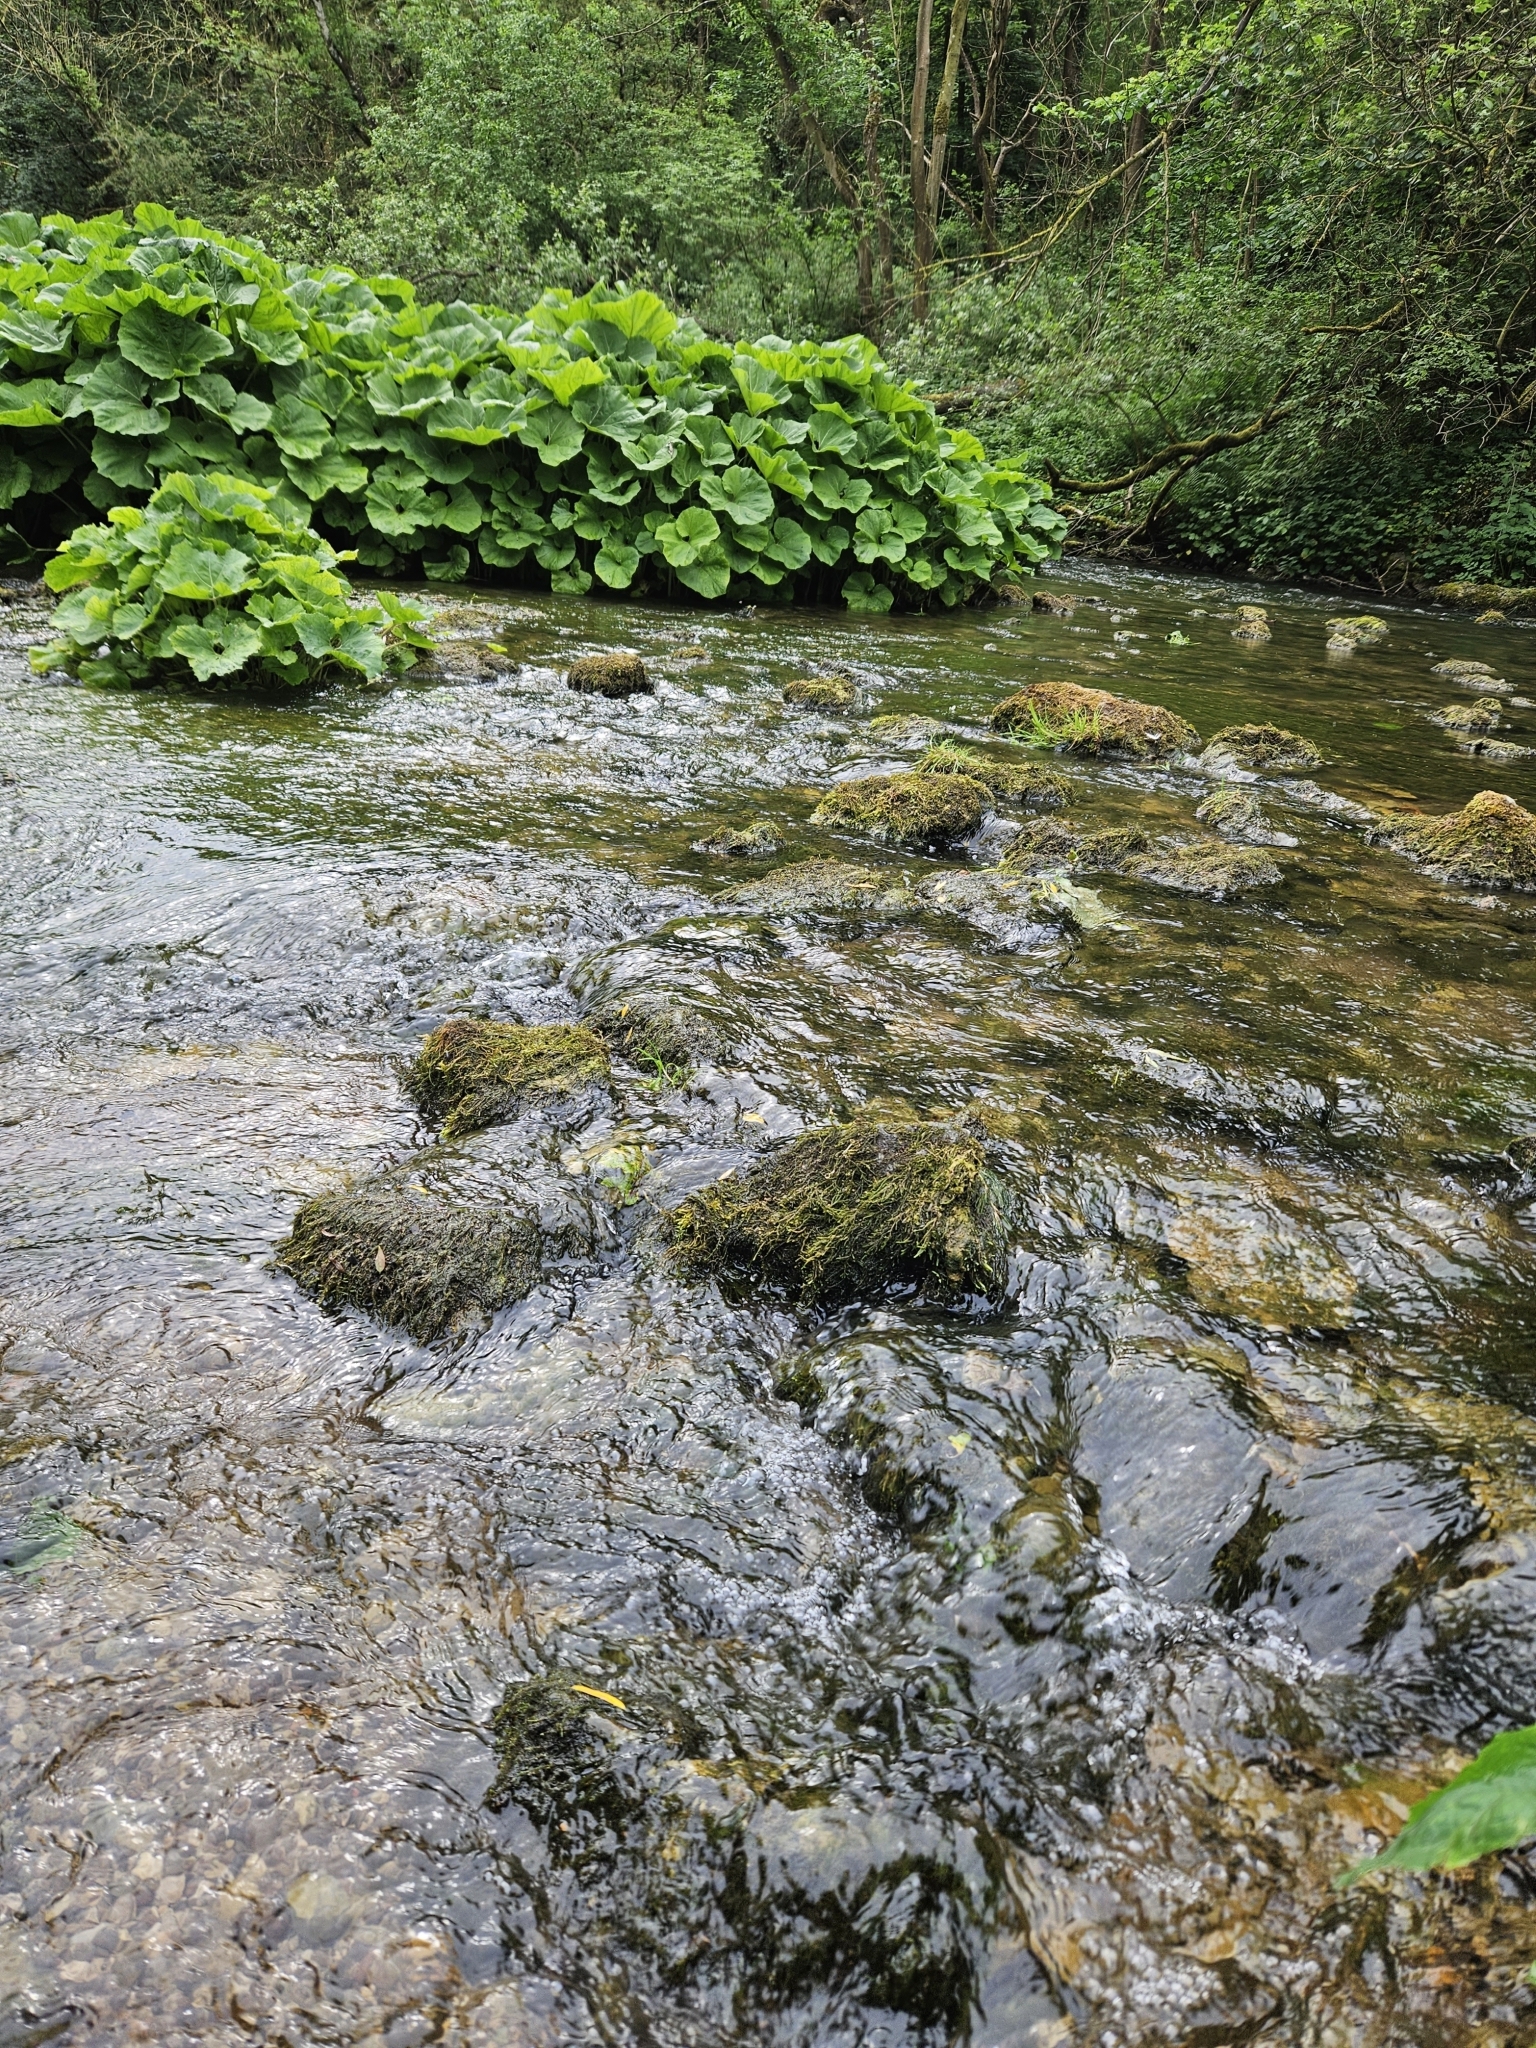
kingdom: Plantae
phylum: Bryophyta
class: Bryopsida
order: Hypnales
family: Amblystegiaceae
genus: Hygroamblystegium
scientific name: Hygroamblystegium fluviatile
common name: Brook-side feather-moss
